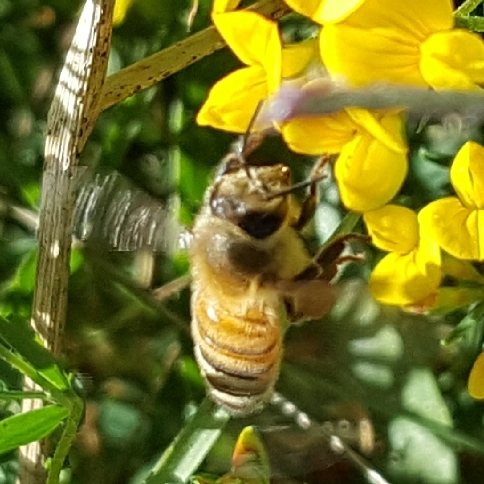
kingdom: Animalia
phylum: Arthropoda
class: Insecta
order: Hymenoptera
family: Apidae
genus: Apis
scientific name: Apis mellifera
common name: Honey bee
